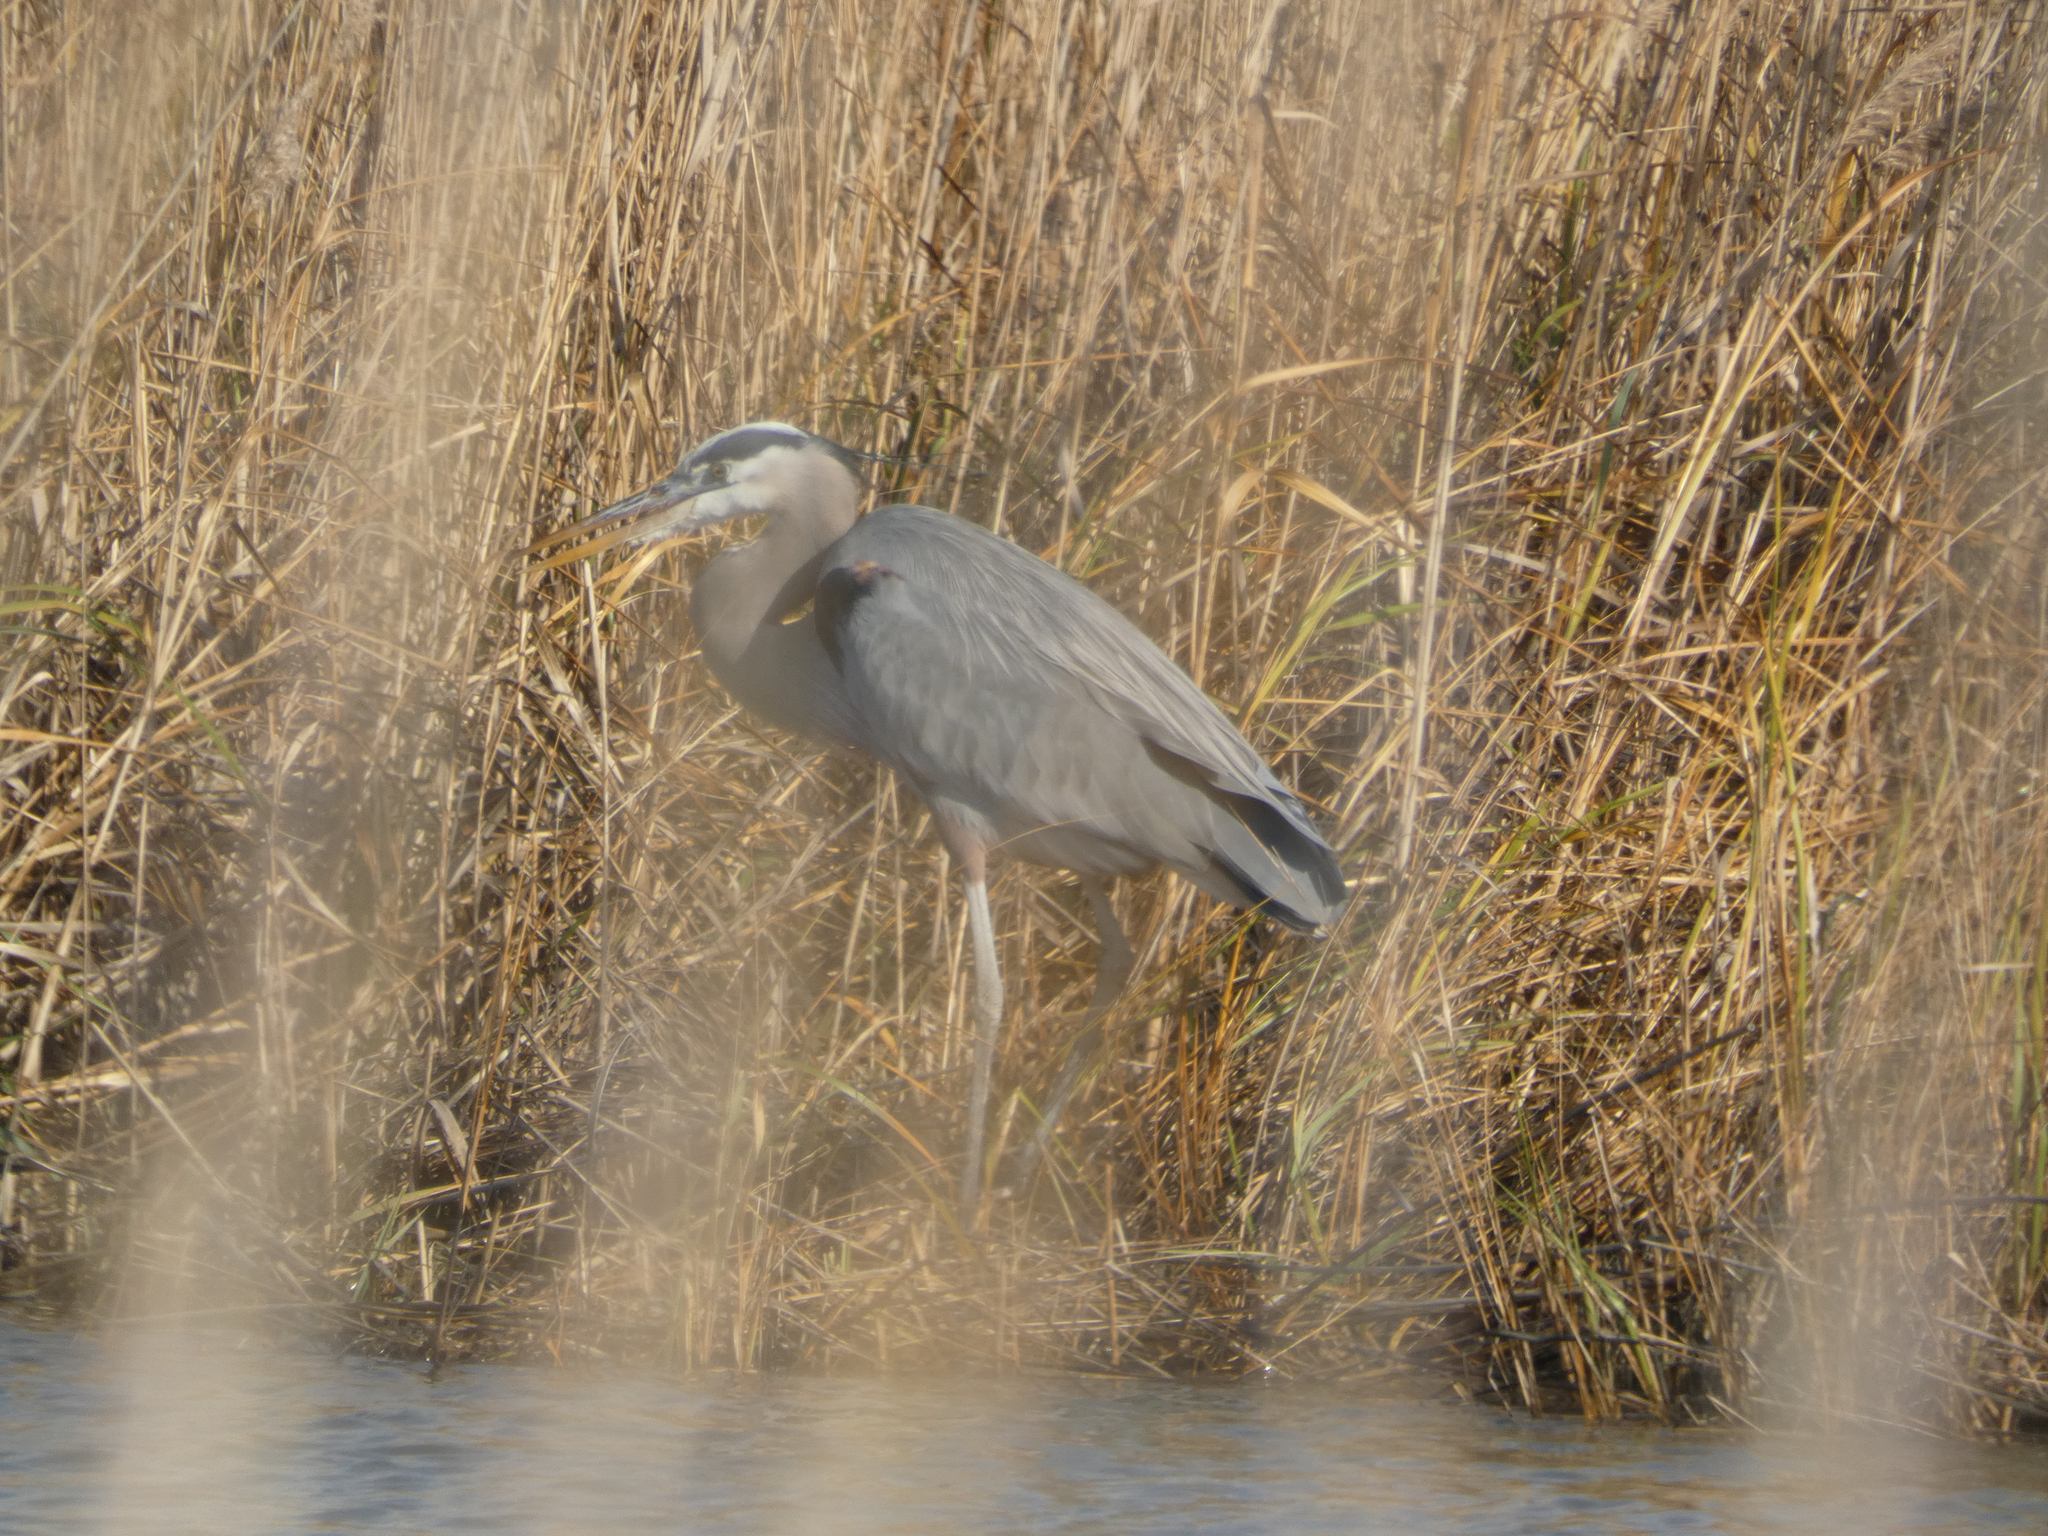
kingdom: Animalia
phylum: Chordata
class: Aves
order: Pelecaniformes
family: Ardeidae
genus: Ardea
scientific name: Ardea herodias
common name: Great blue heron
